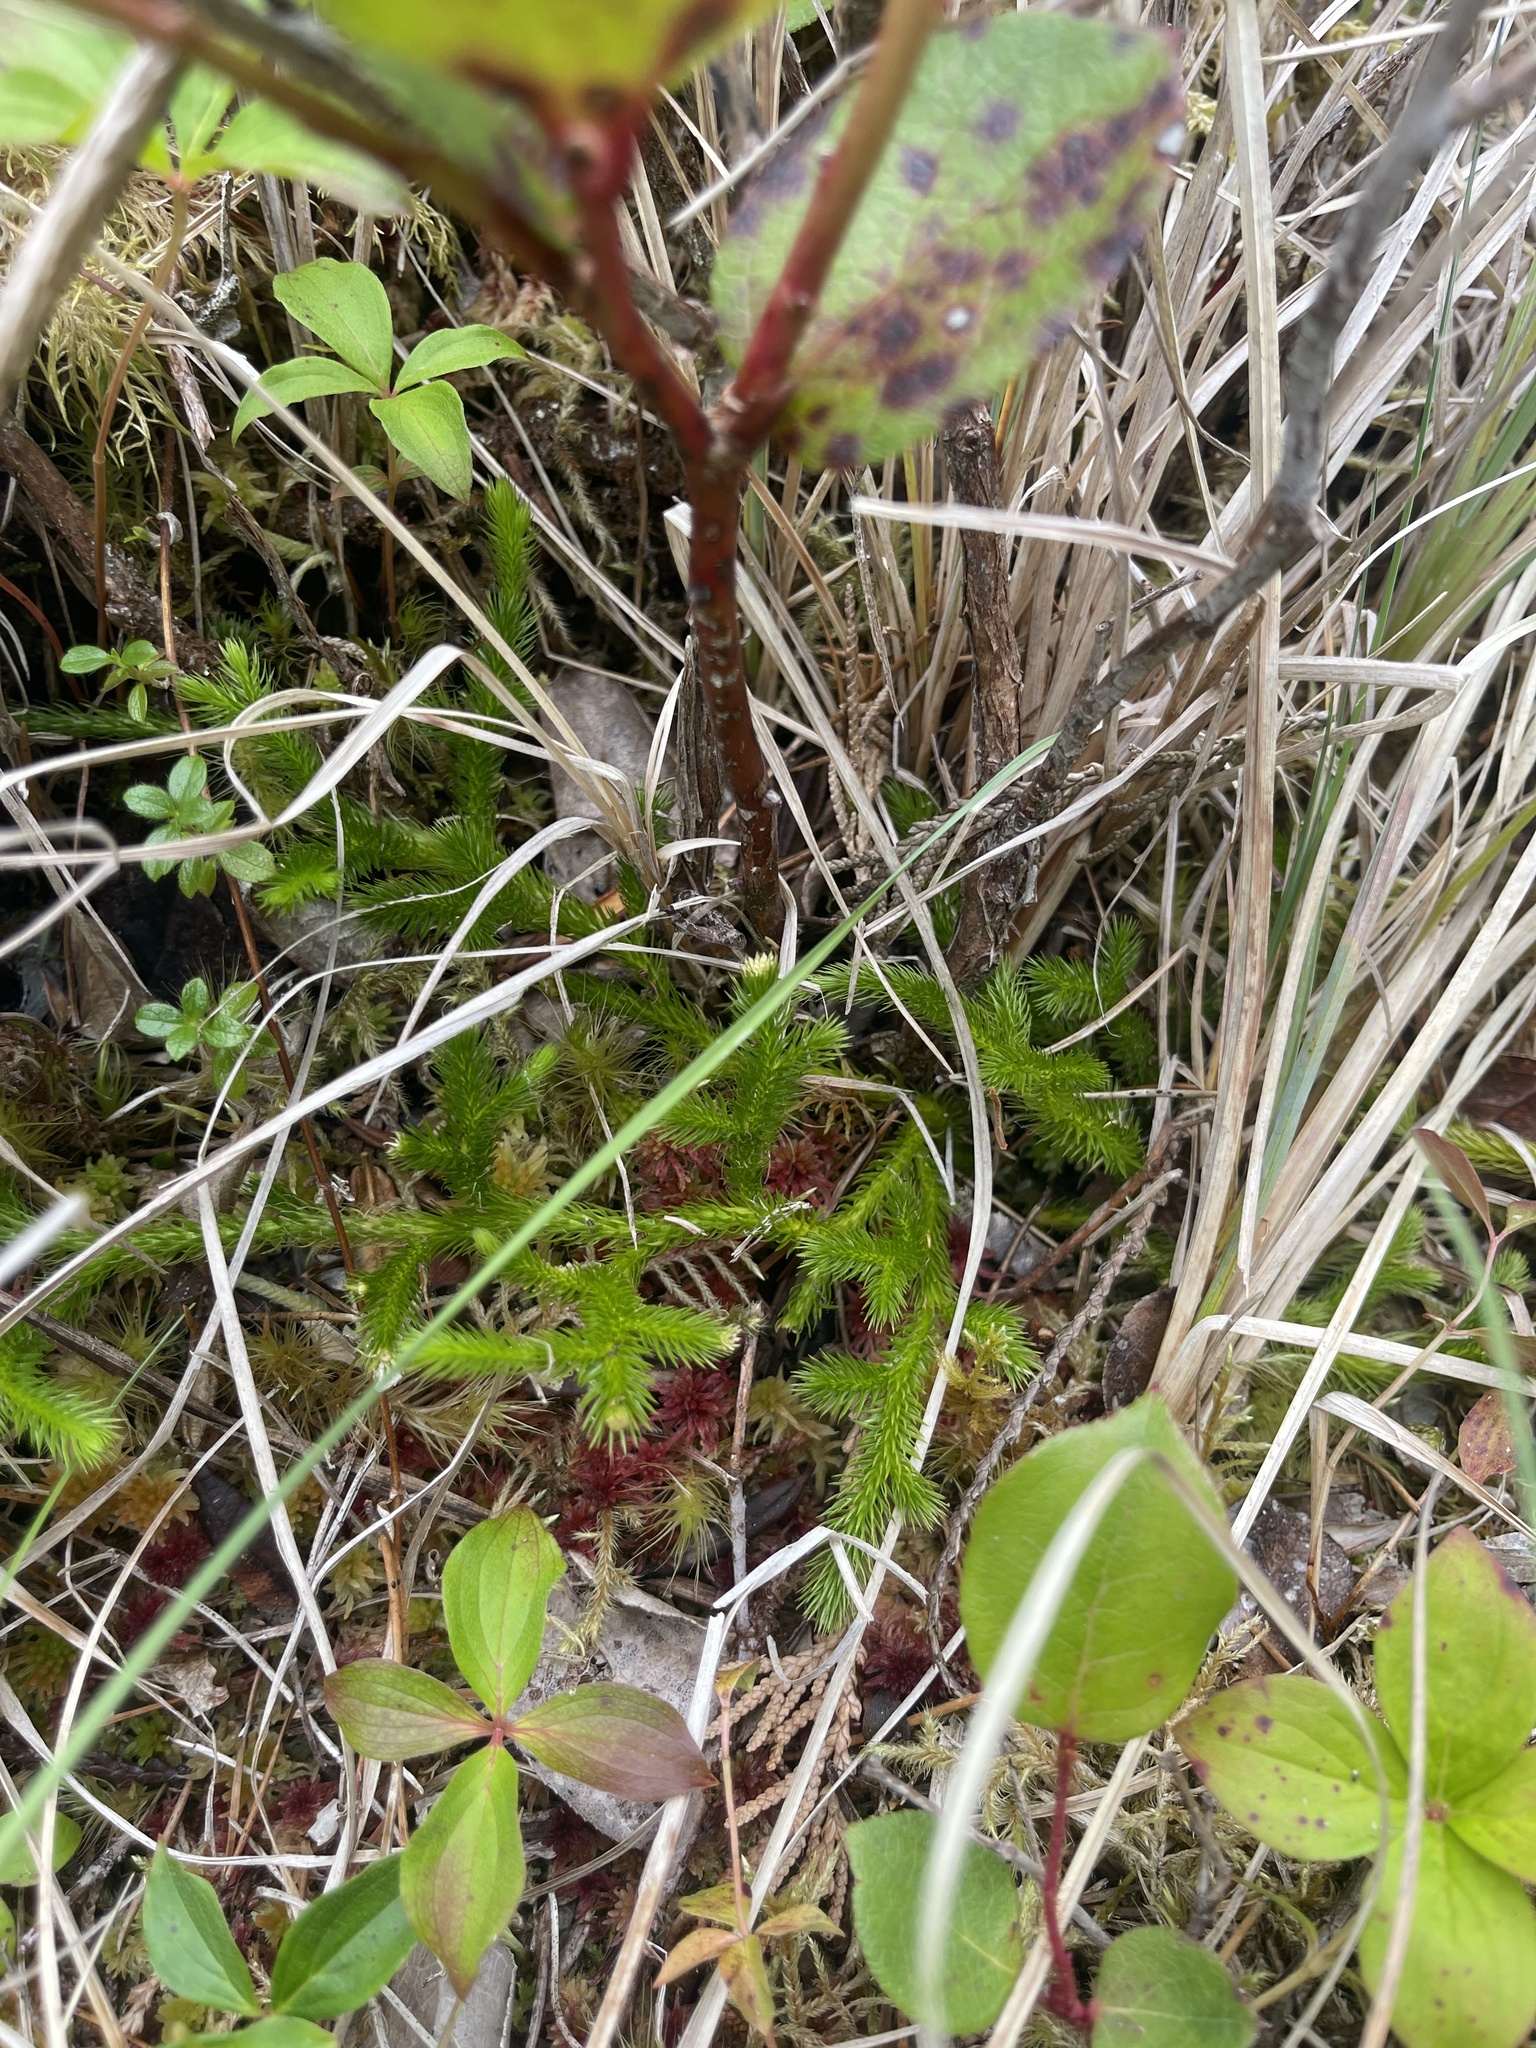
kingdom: Plantae
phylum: Tracheophyta
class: Lycopodiopsida
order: Lycopodiales
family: Lycopodiaceae
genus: Lycopodium
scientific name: Lycopodium clavatum
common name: Stag's-horn clubmoss
